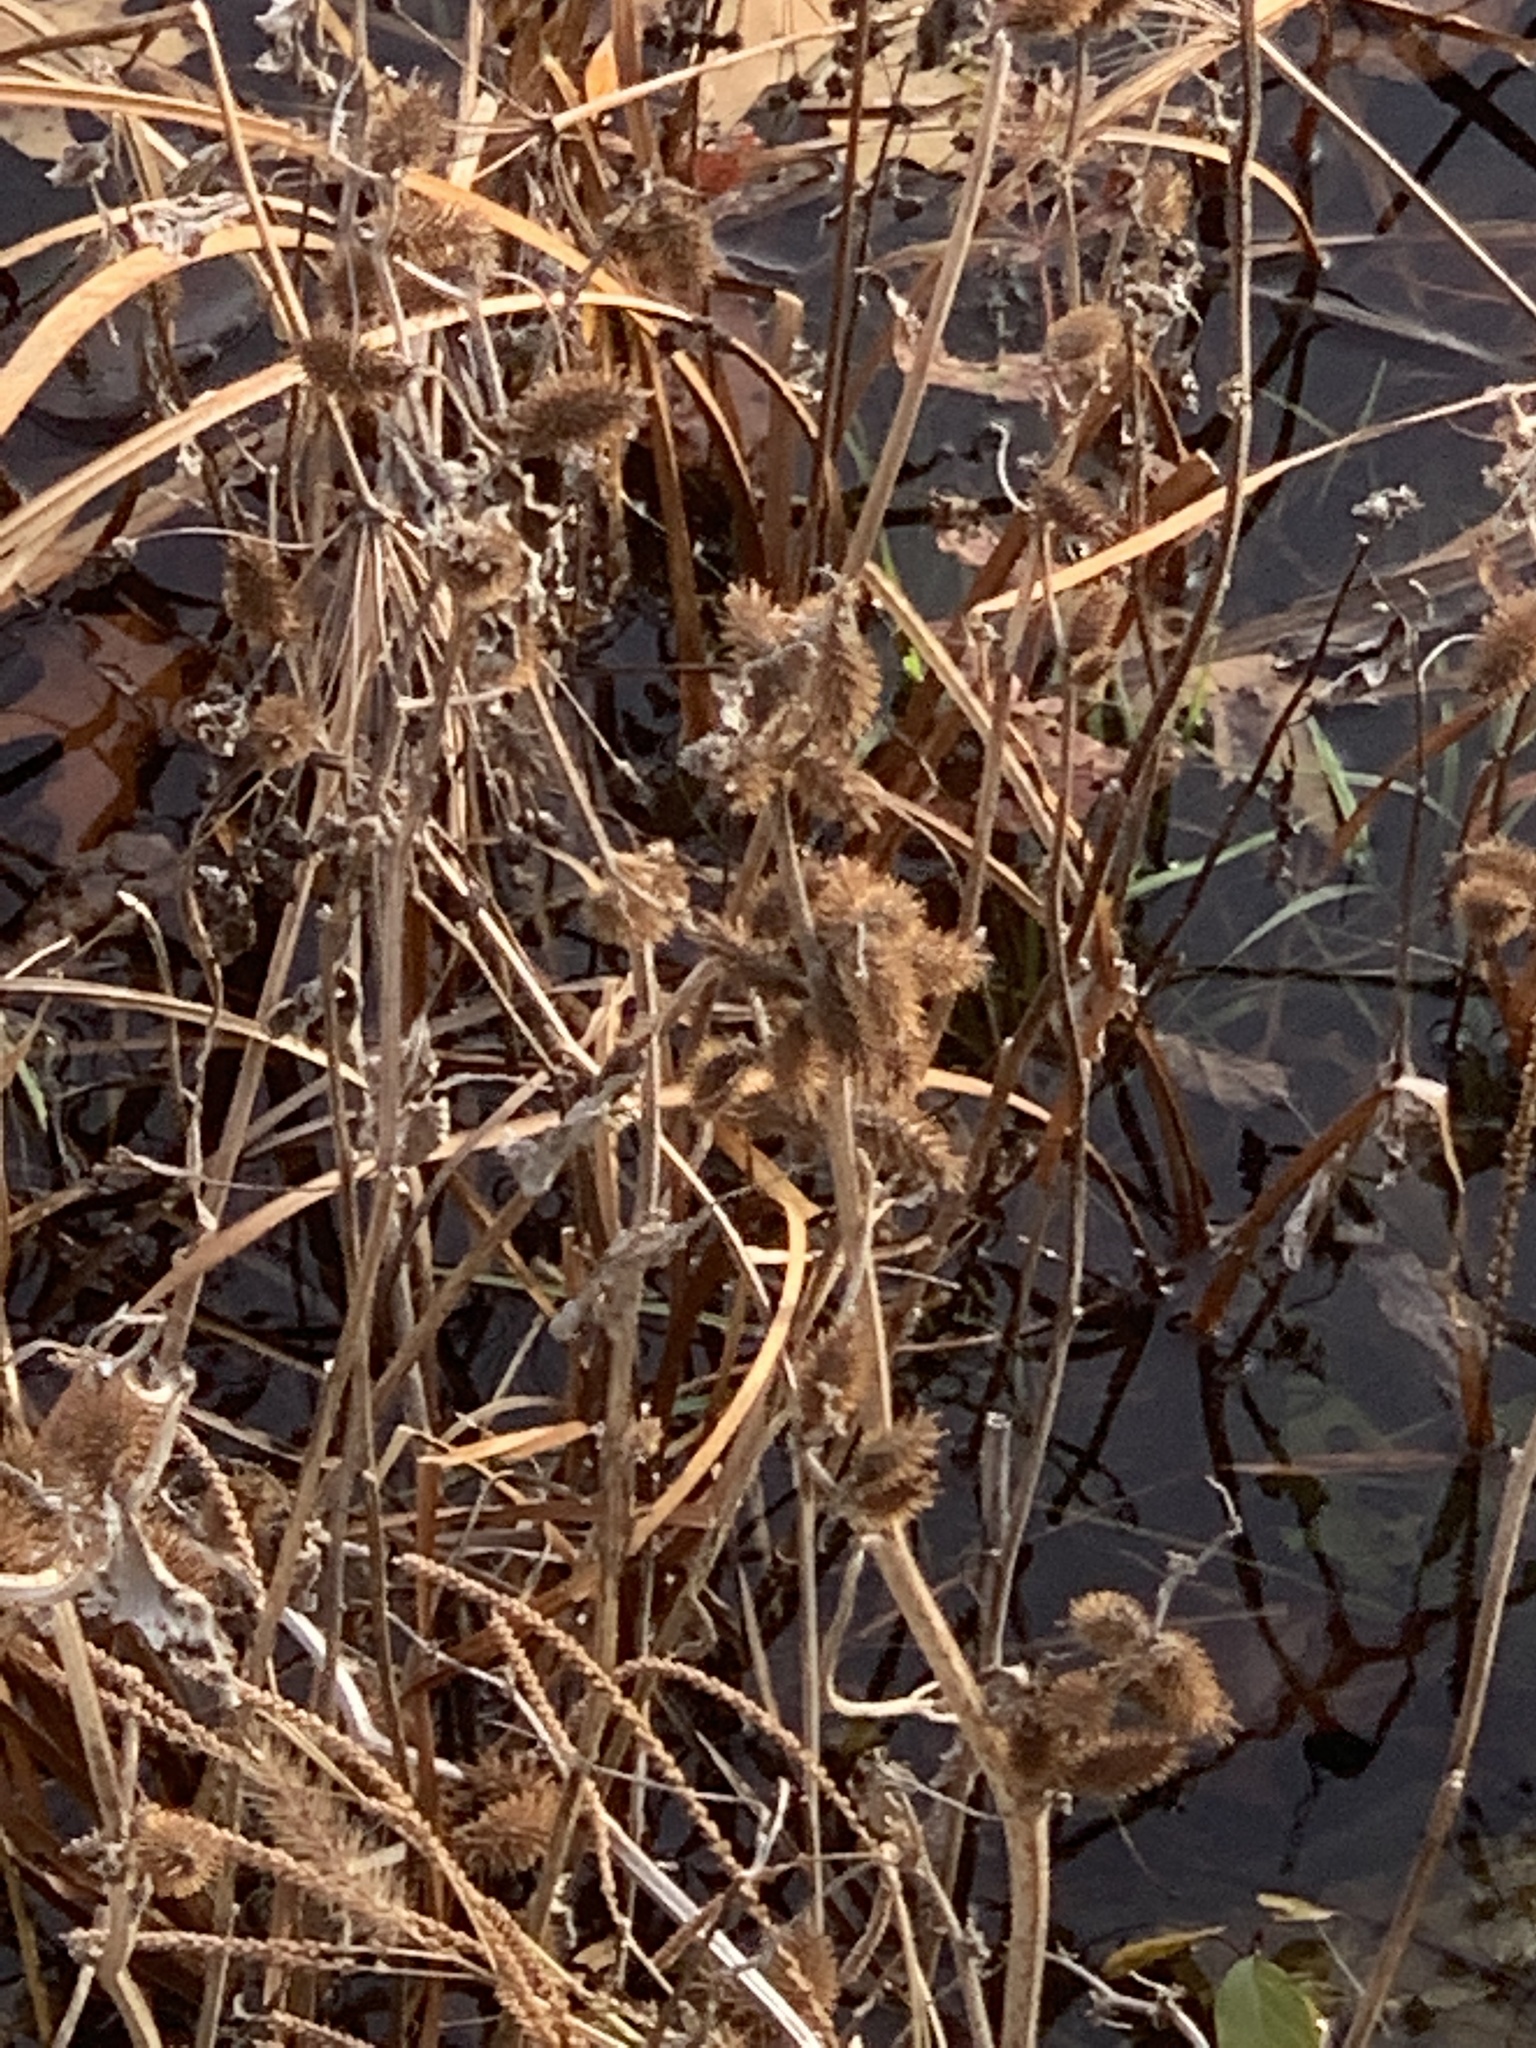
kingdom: Plantae
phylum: Tracheophyta
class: Magnoliopsida
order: Asterales
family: Asteraceae
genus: Xanthium
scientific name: Xanthium strumarium
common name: Rough cocklebur
